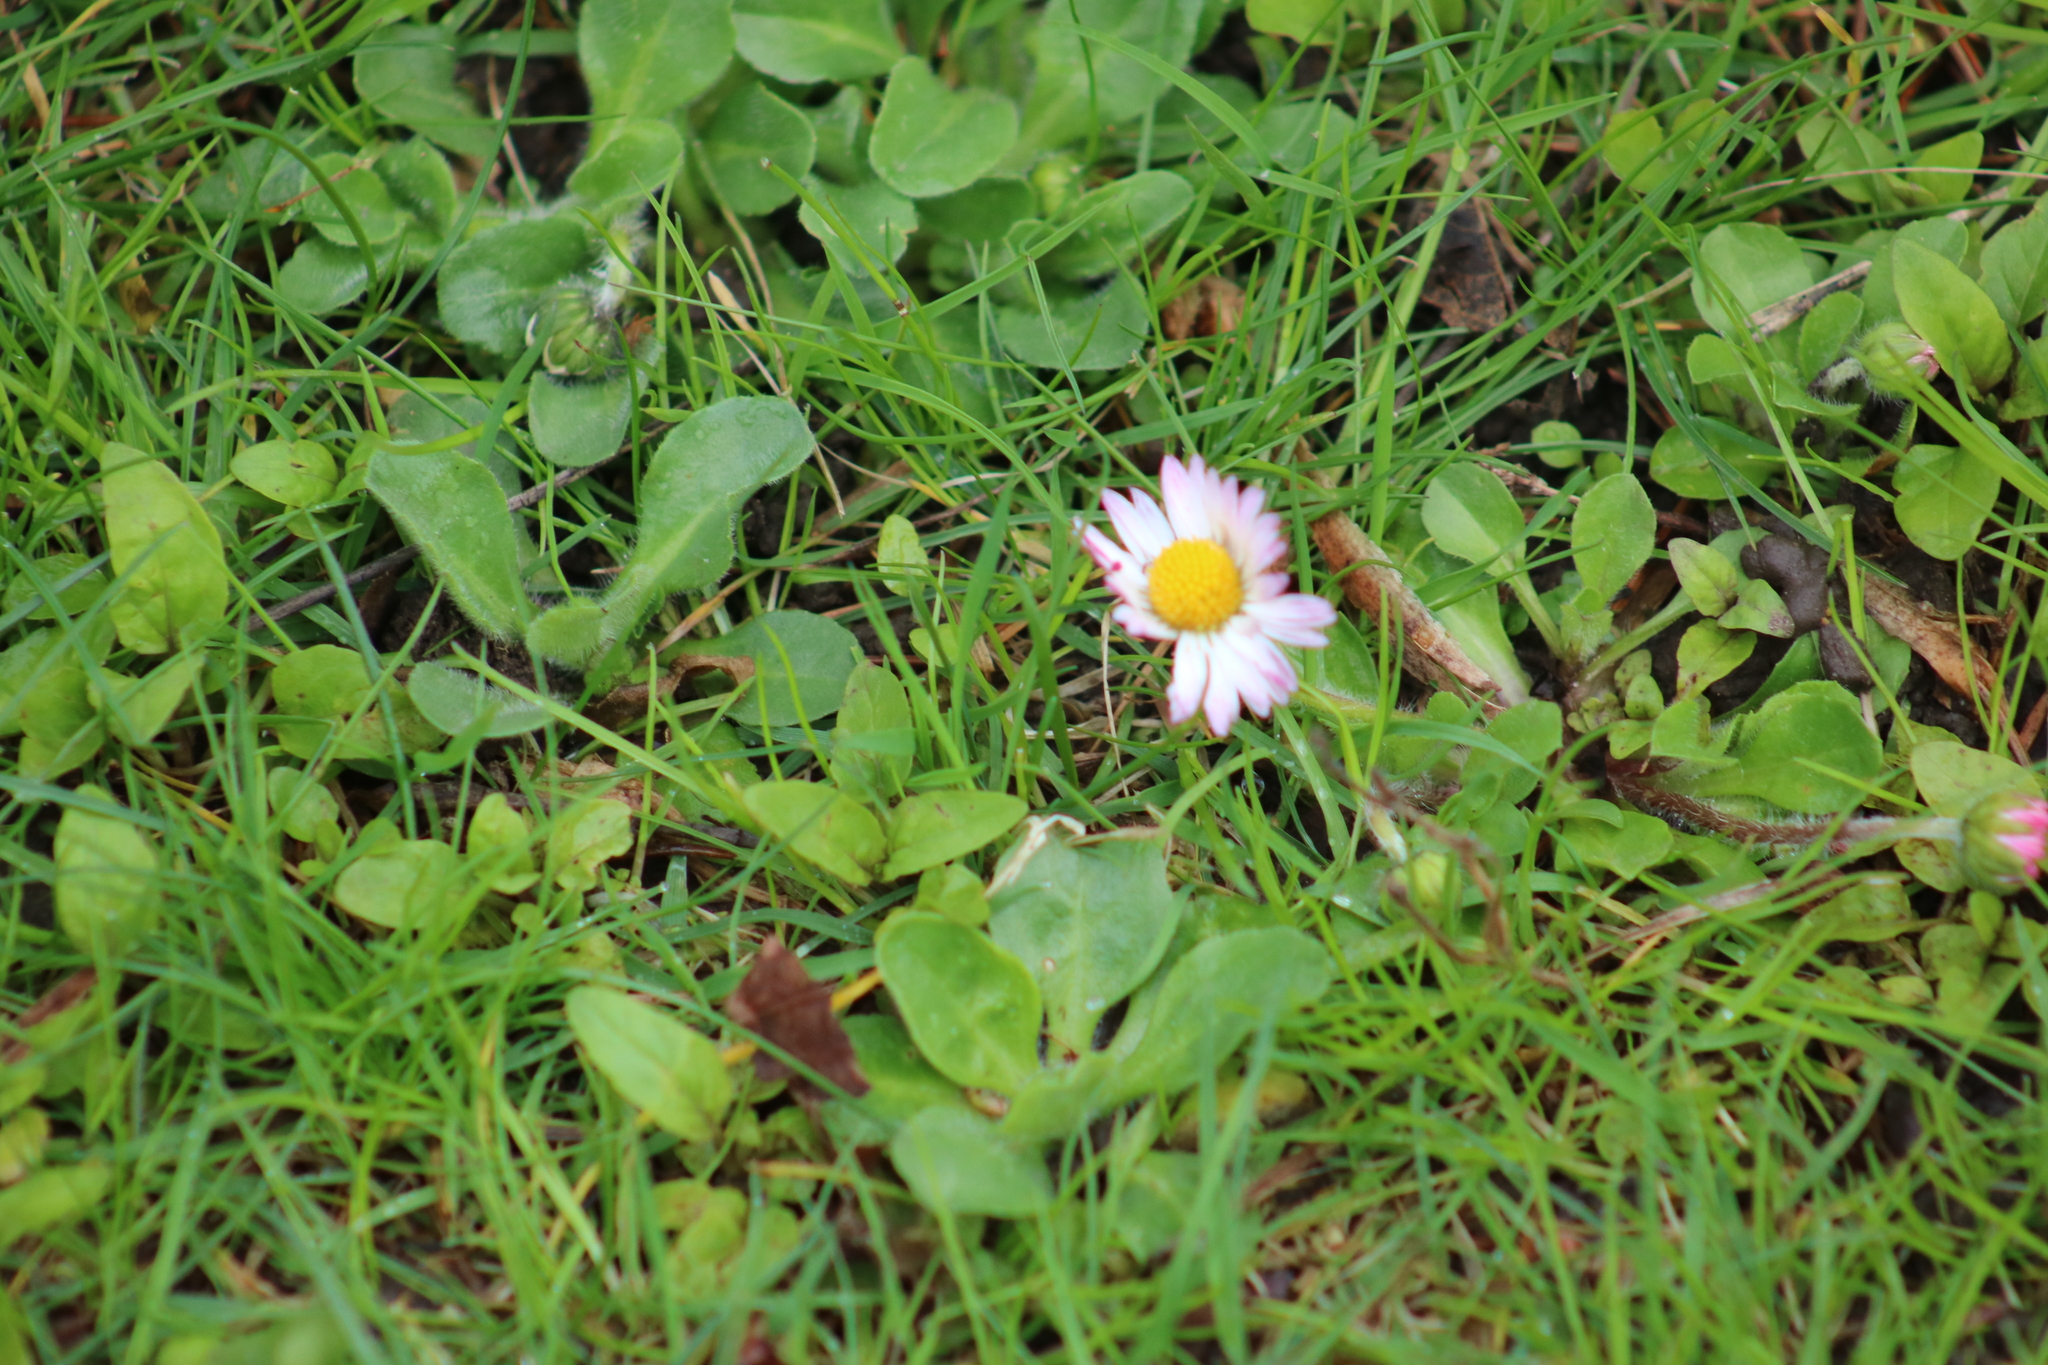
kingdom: Plantae
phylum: Tracheophyta
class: Magnoliopsida
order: Asterales
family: Asteraceae
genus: Bellis
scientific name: Bellis perennis
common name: Lawndaisy
